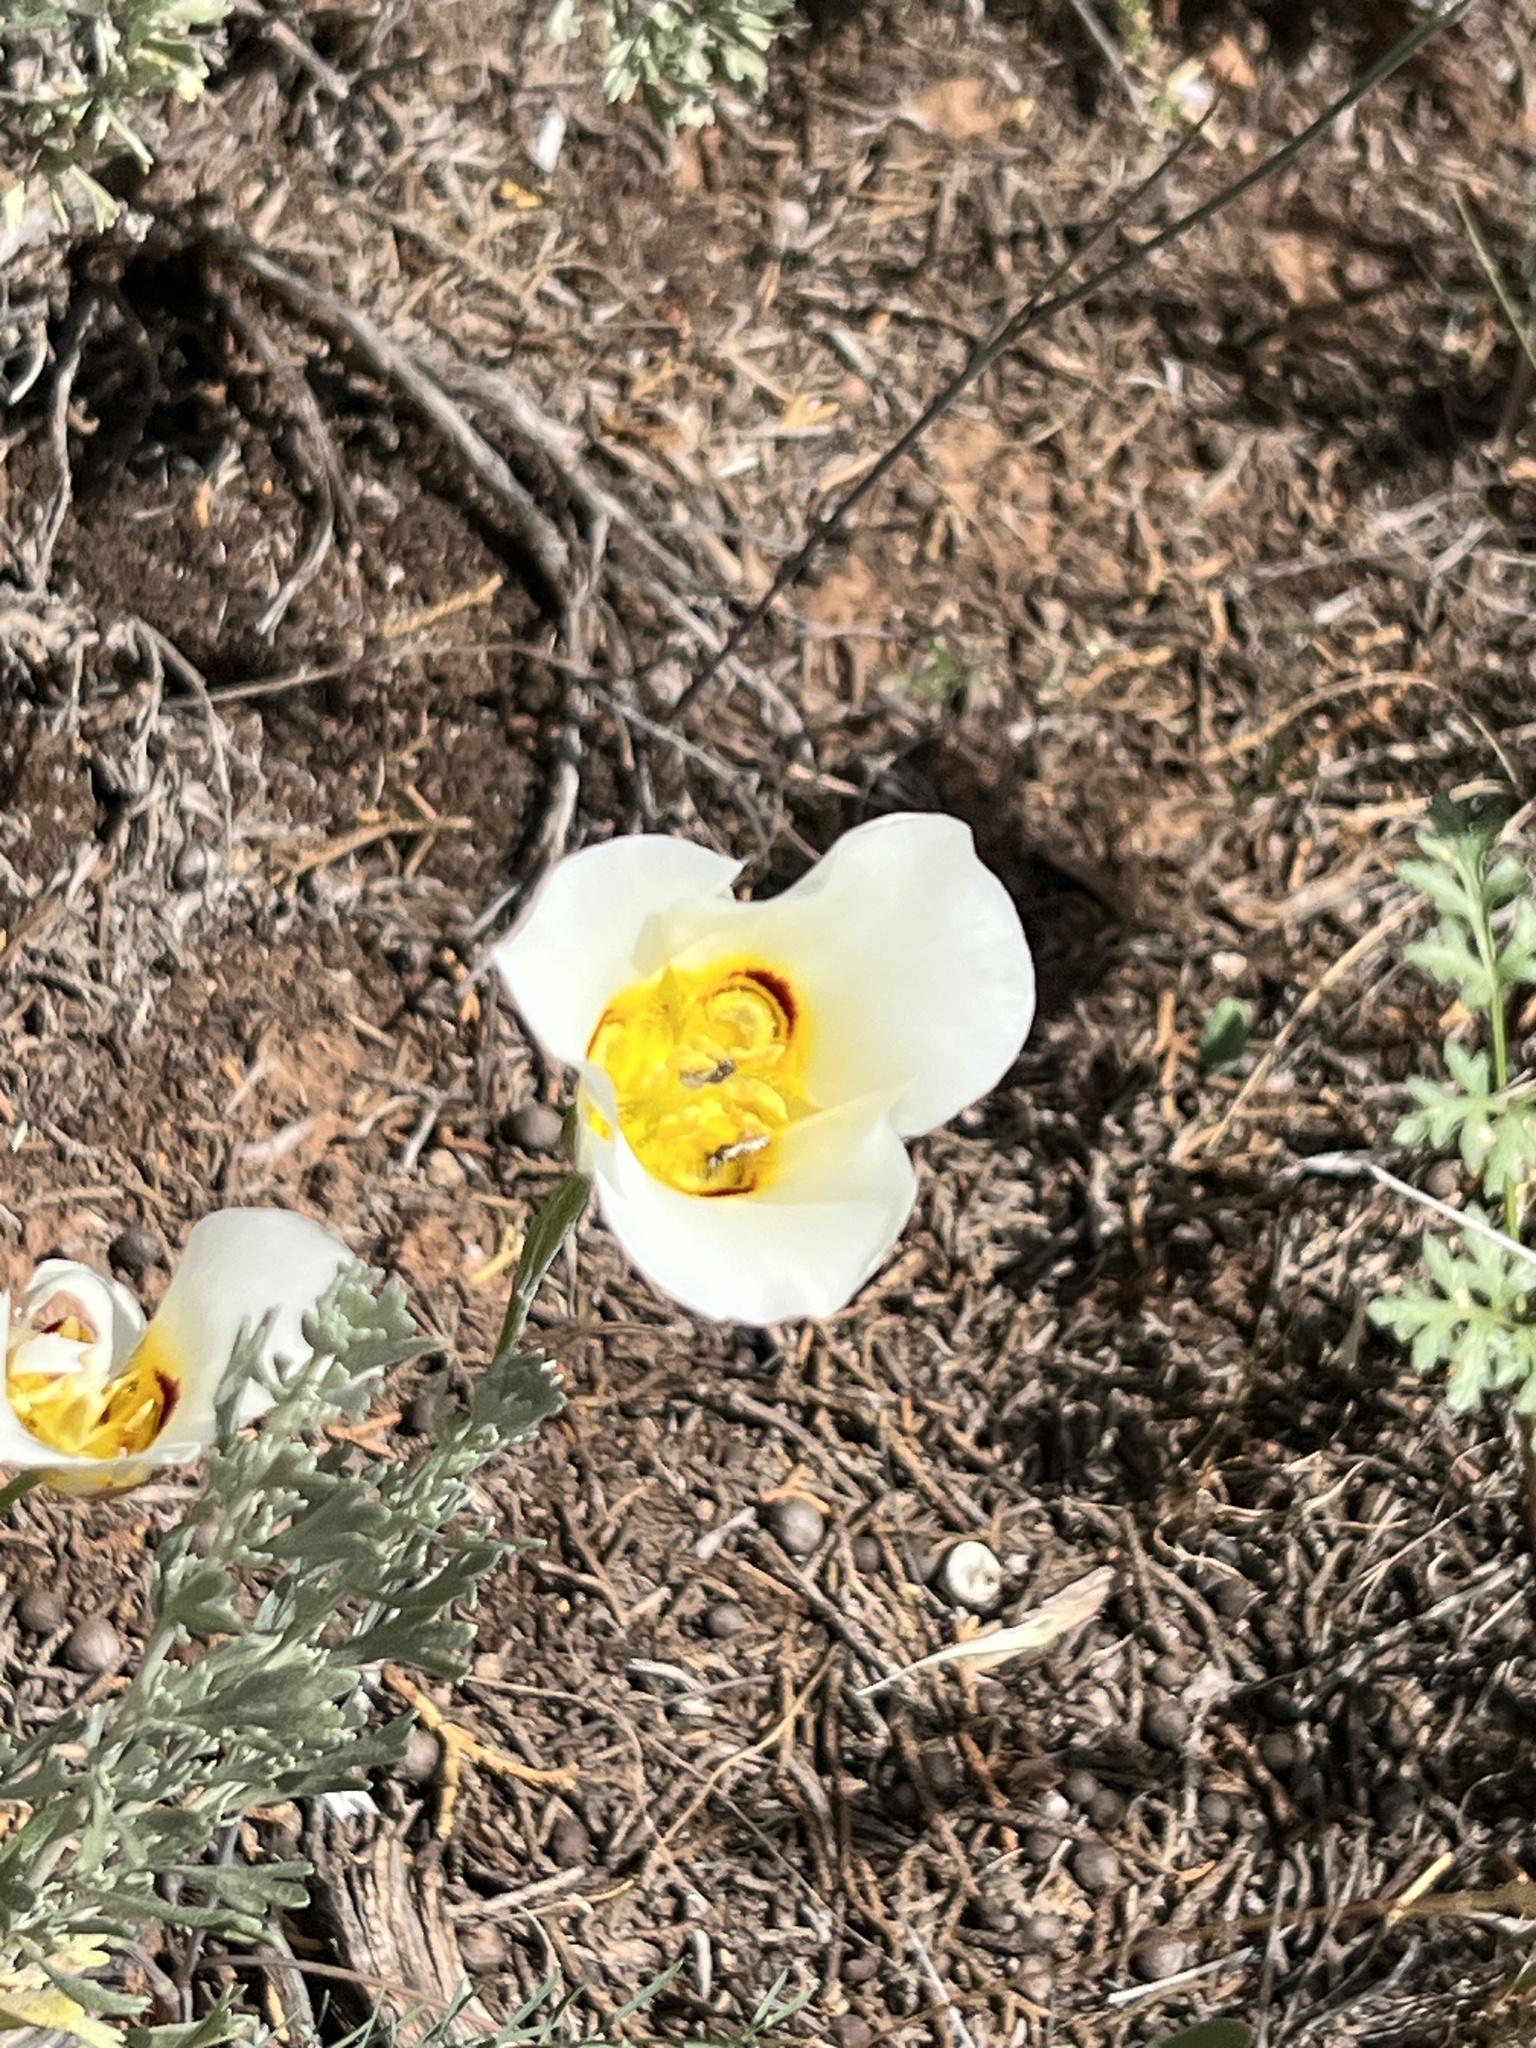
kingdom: Plantae
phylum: Tracheophyta
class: Liliopsida
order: Liliales
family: Liliaceae
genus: Calochortus
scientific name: Calochortus nuttallii
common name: Sego-lily
